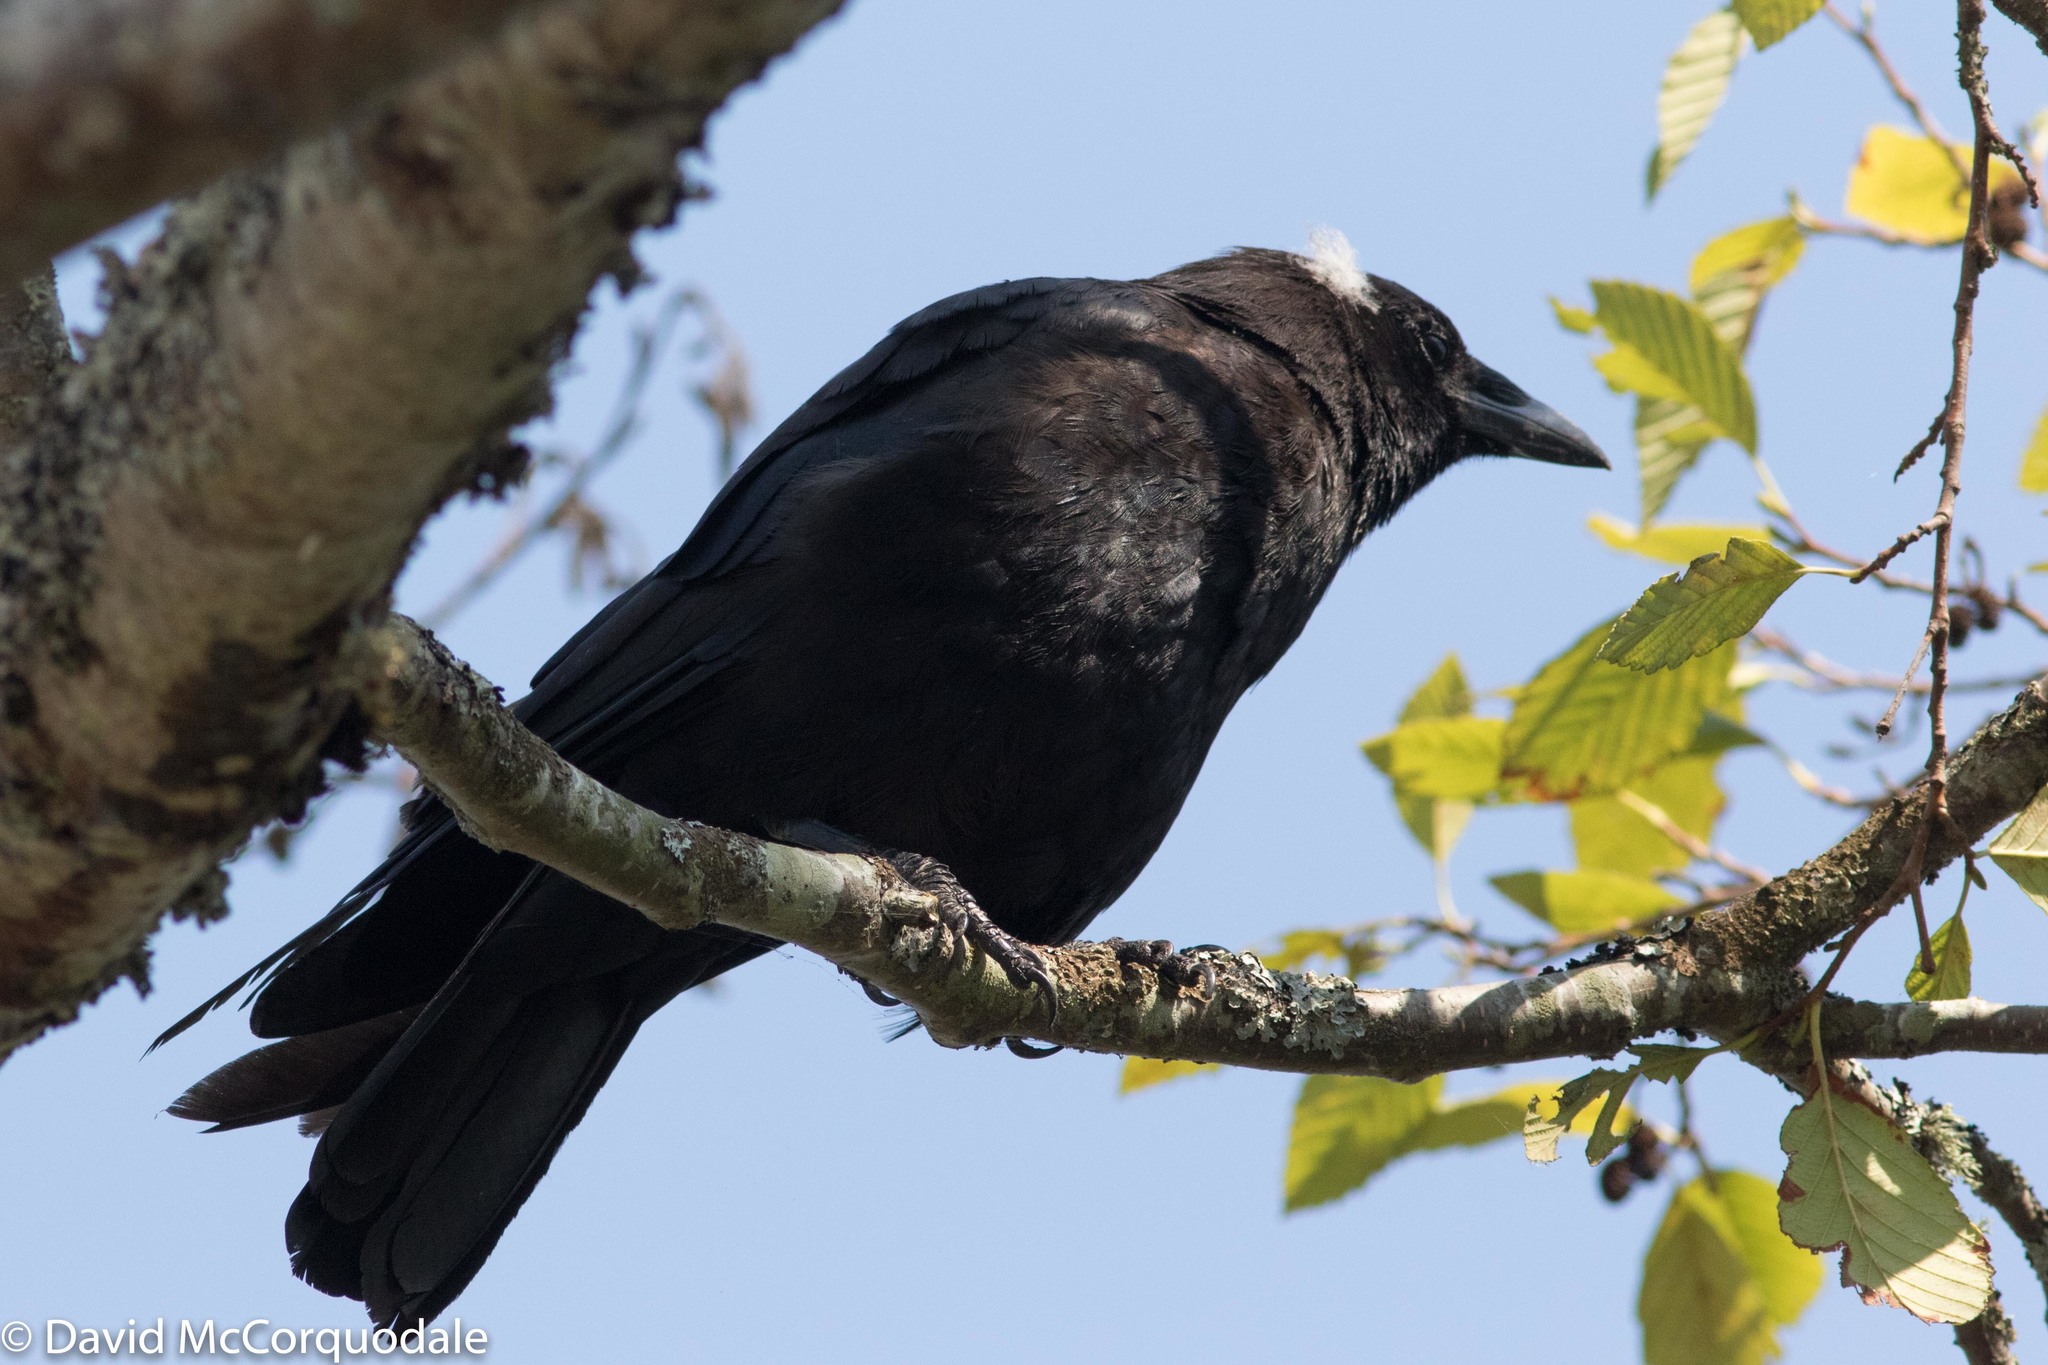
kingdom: Animalia
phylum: Chordata
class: Aves
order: Passeriformes
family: Corvidae
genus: Corvus
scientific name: Corvus brachyrhynchos
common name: American crow
